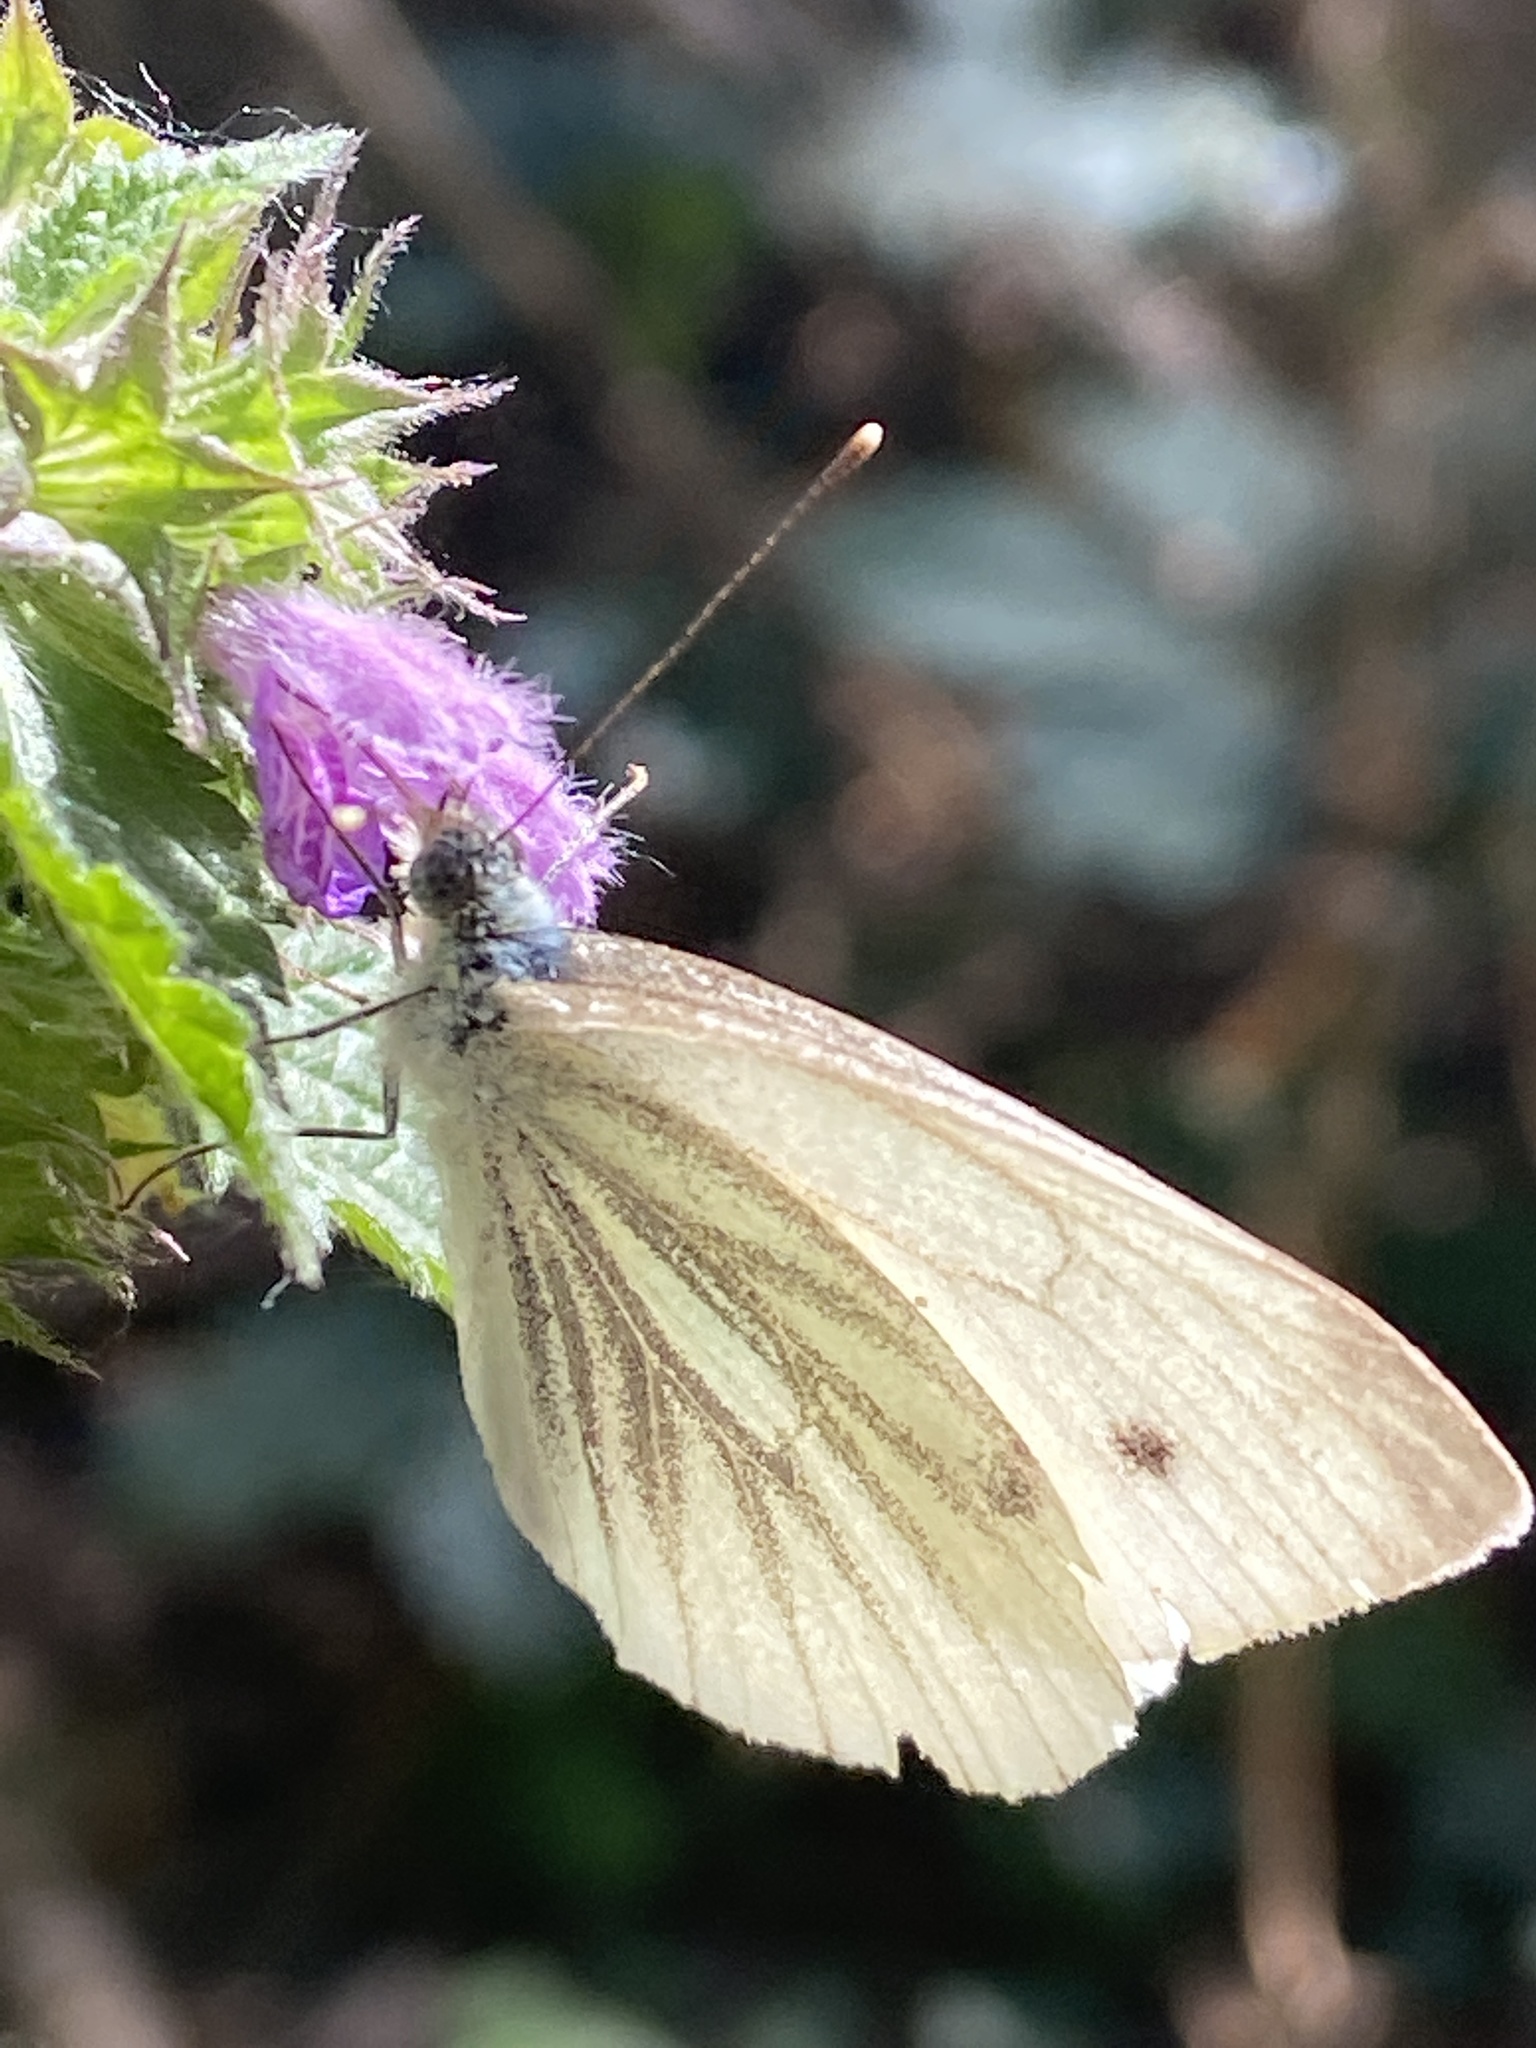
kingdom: Animalia
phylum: Arthropoda
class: Insecta
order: Lepidoptera
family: Pieridae
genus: Pieris
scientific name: Pieris napi
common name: Green-veined white
